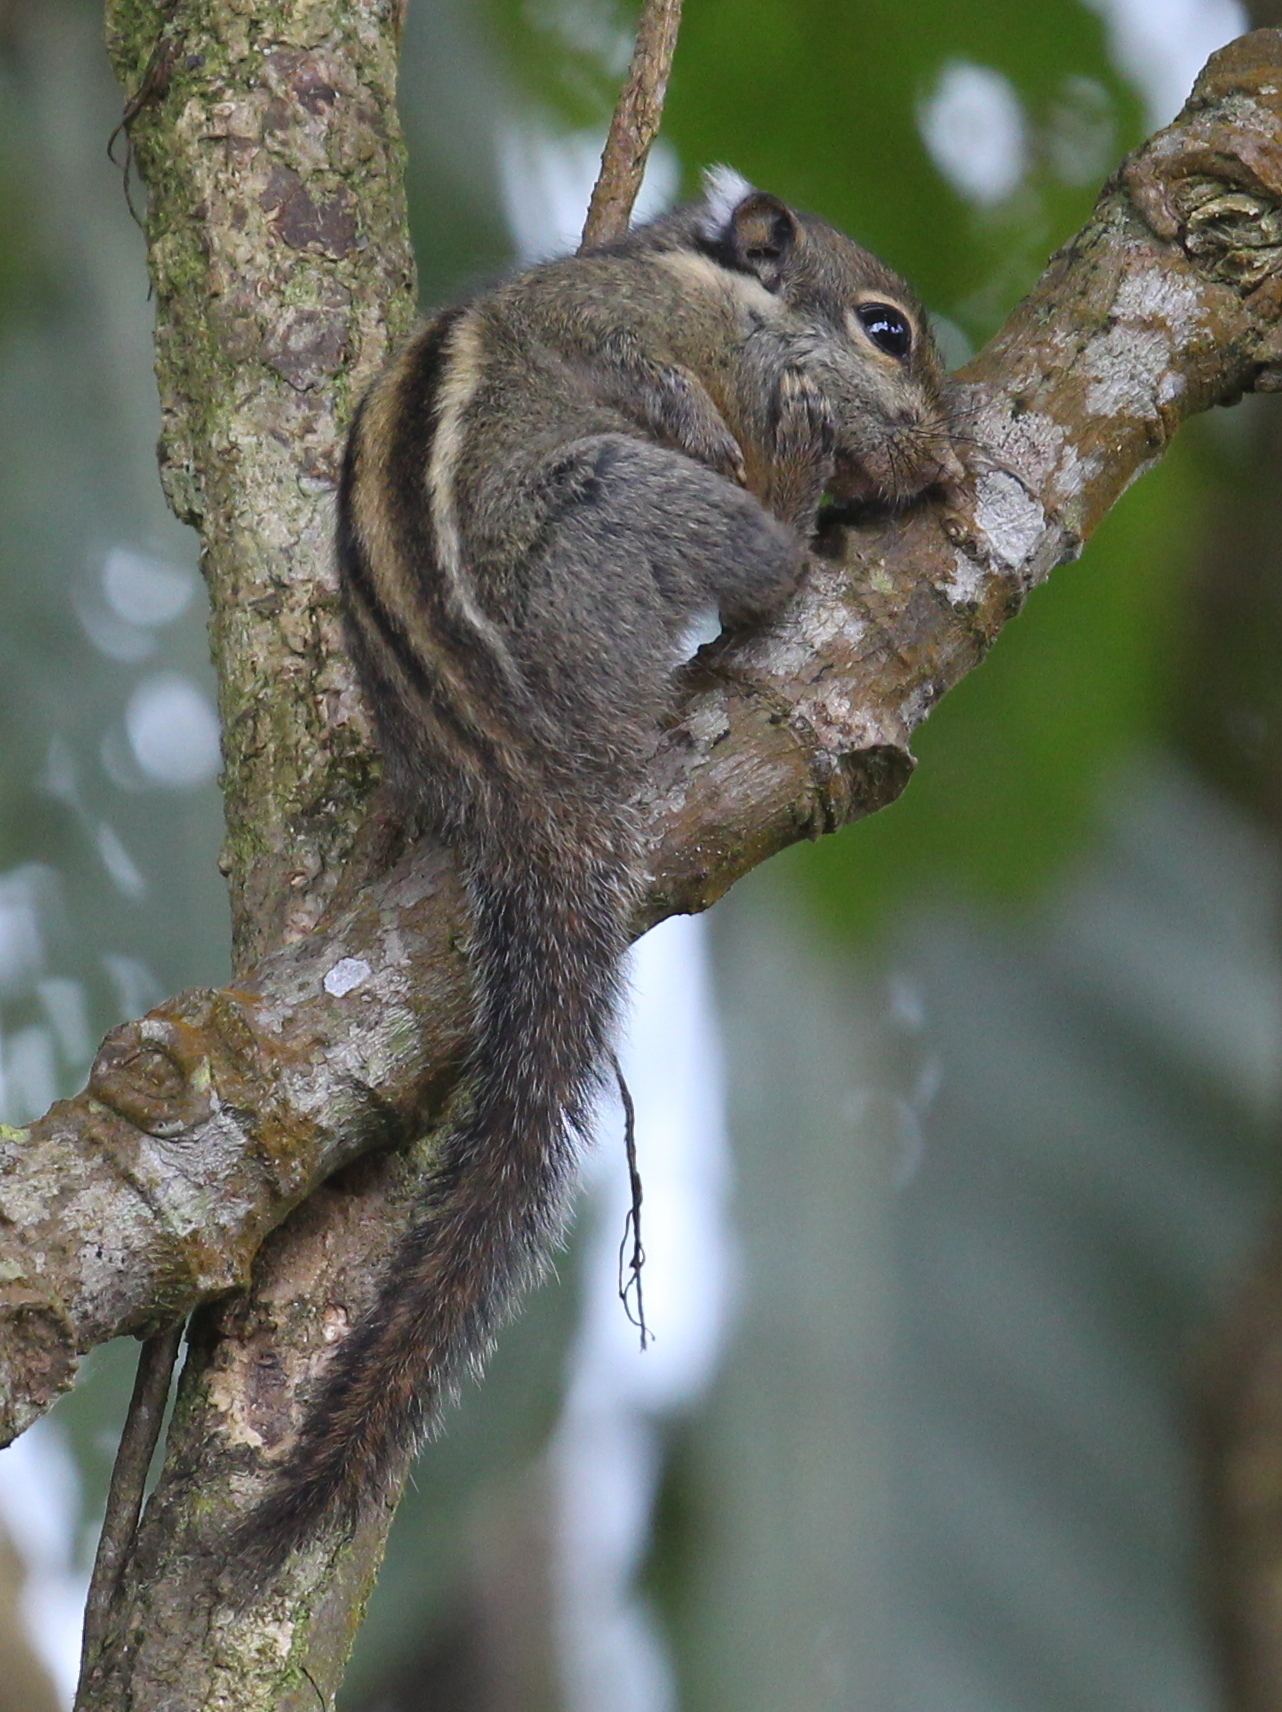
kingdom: Animalia
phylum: Chordata
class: Mammalia
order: Rodentia
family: Sciuridae
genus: Tamiops
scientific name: Tamiops mcclellandii
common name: Himalayan striped squirrel
